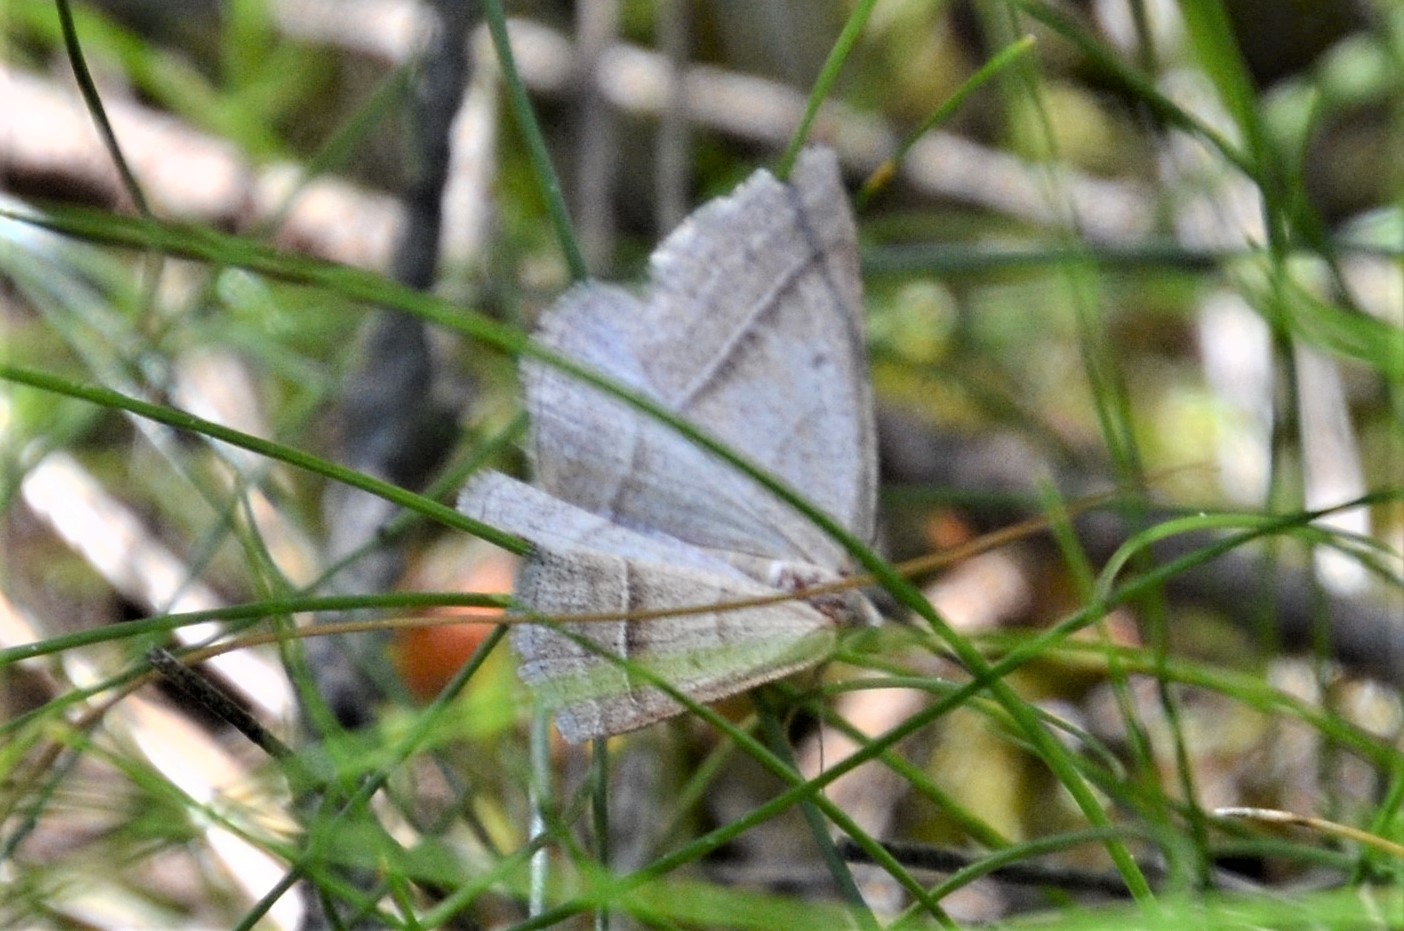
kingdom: Animalia
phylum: Arthropoda
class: Insecta
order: Lepidoptera
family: Pterophoridae
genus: Pterophorus
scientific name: Pterophorus Petrophora chlorosata
